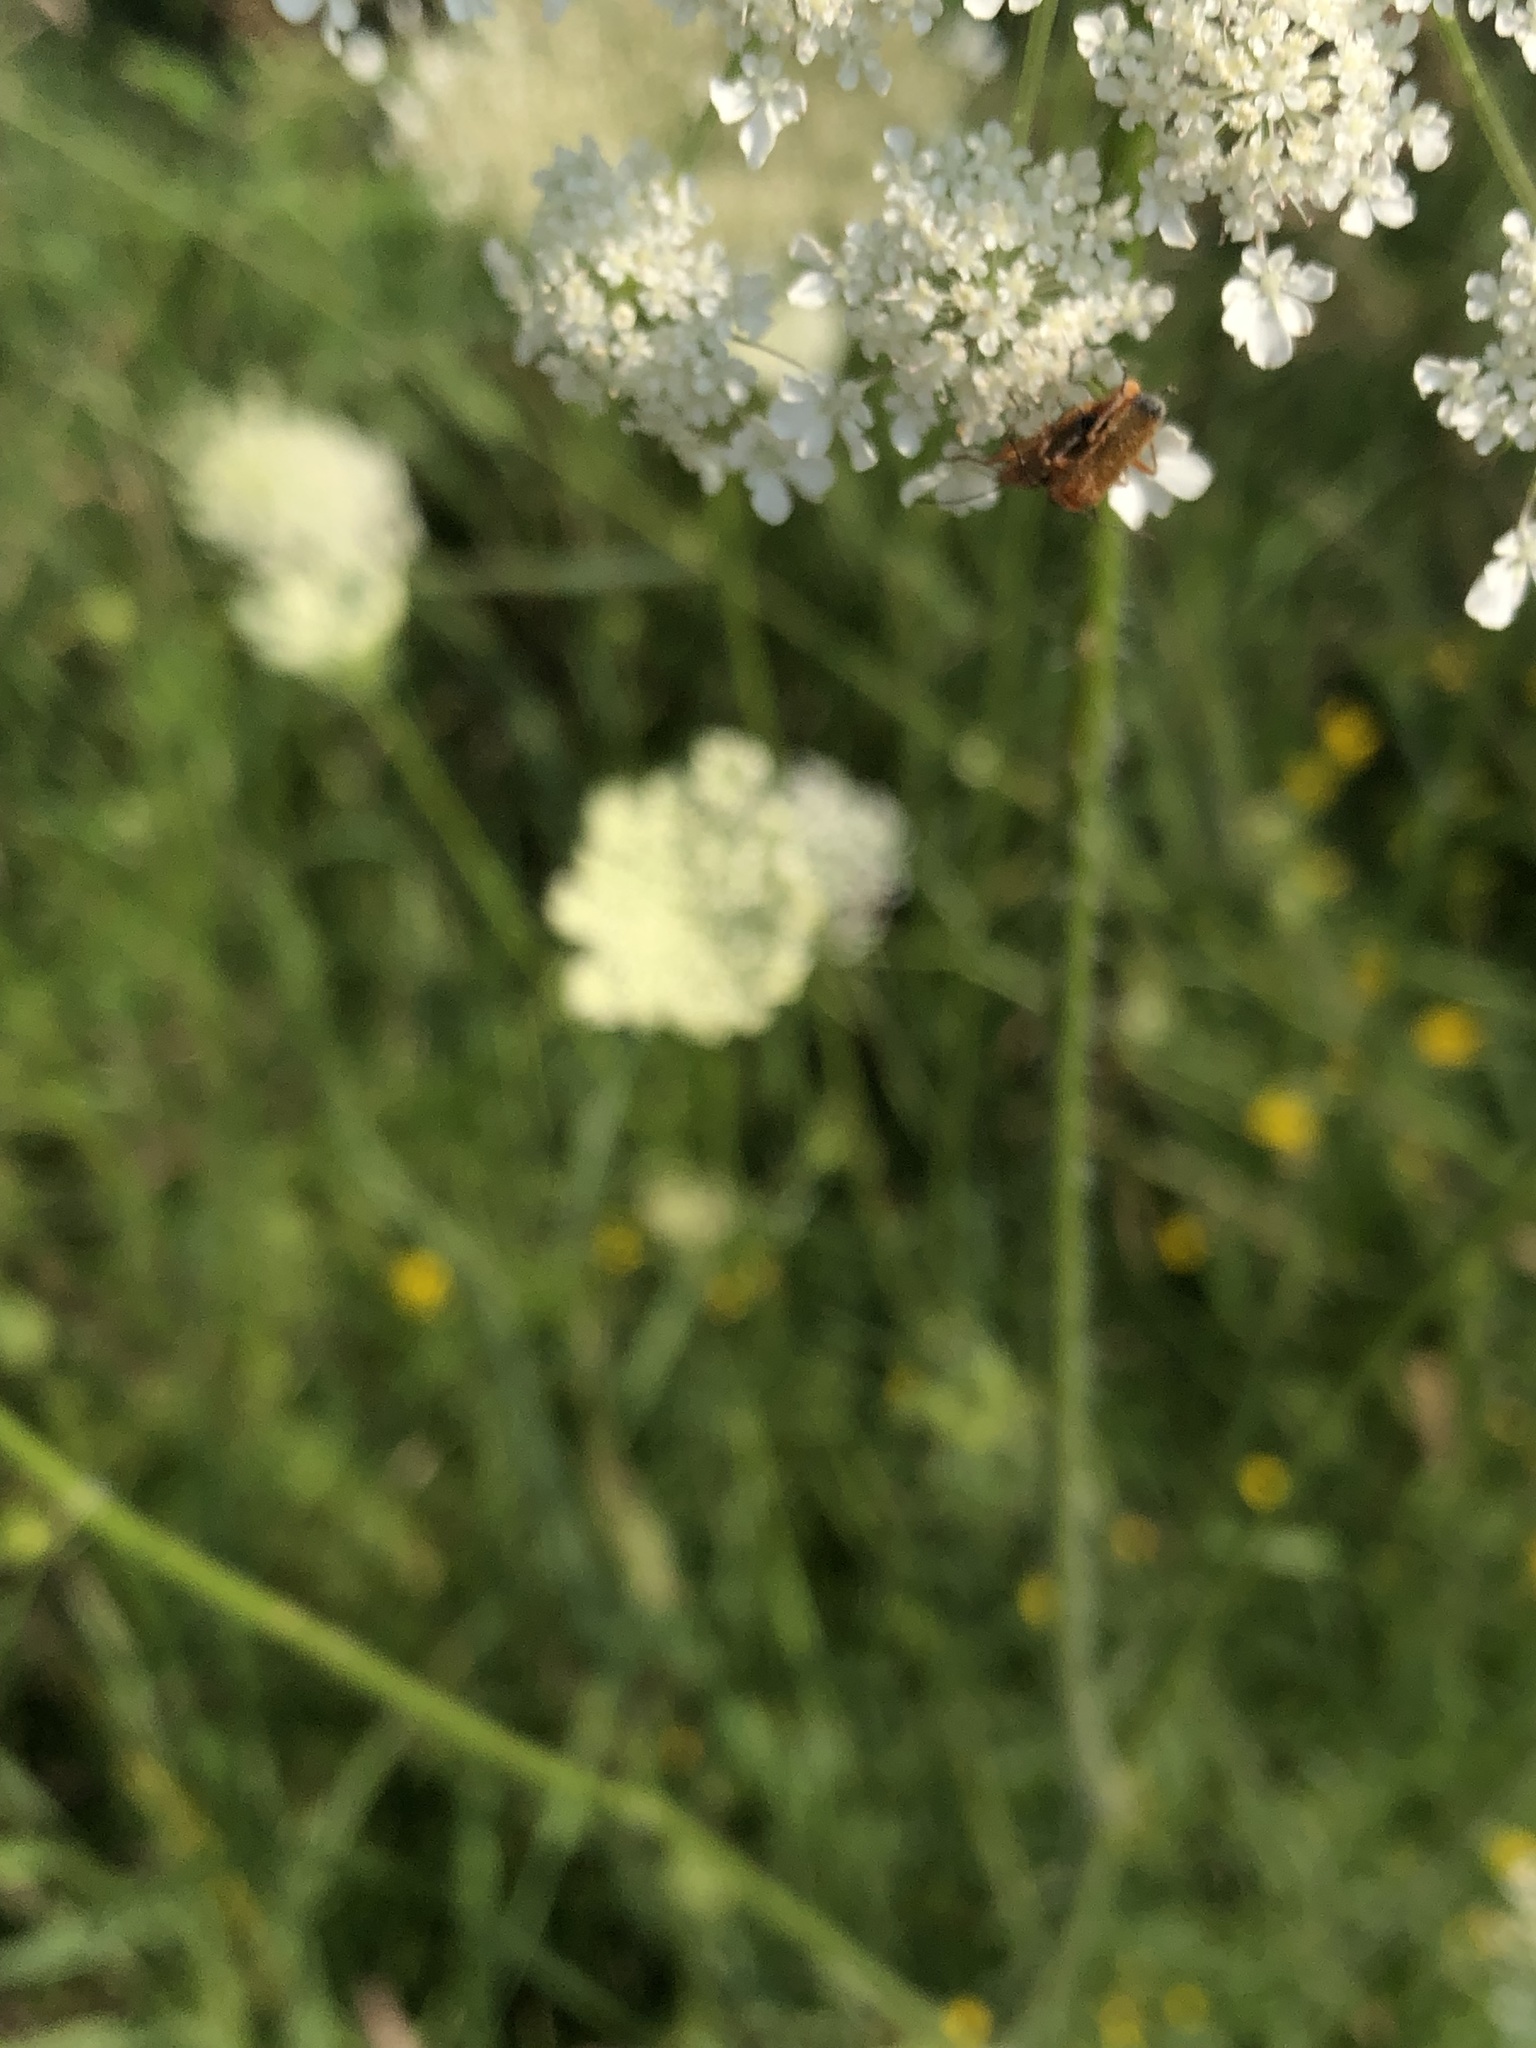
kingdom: Animalia
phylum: Arthropoda
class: Insecta
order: Coleoptera
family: Cantharidae
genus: Rhagonycha
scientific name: Rhagonycha fulva
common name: Common red soldier beetle
